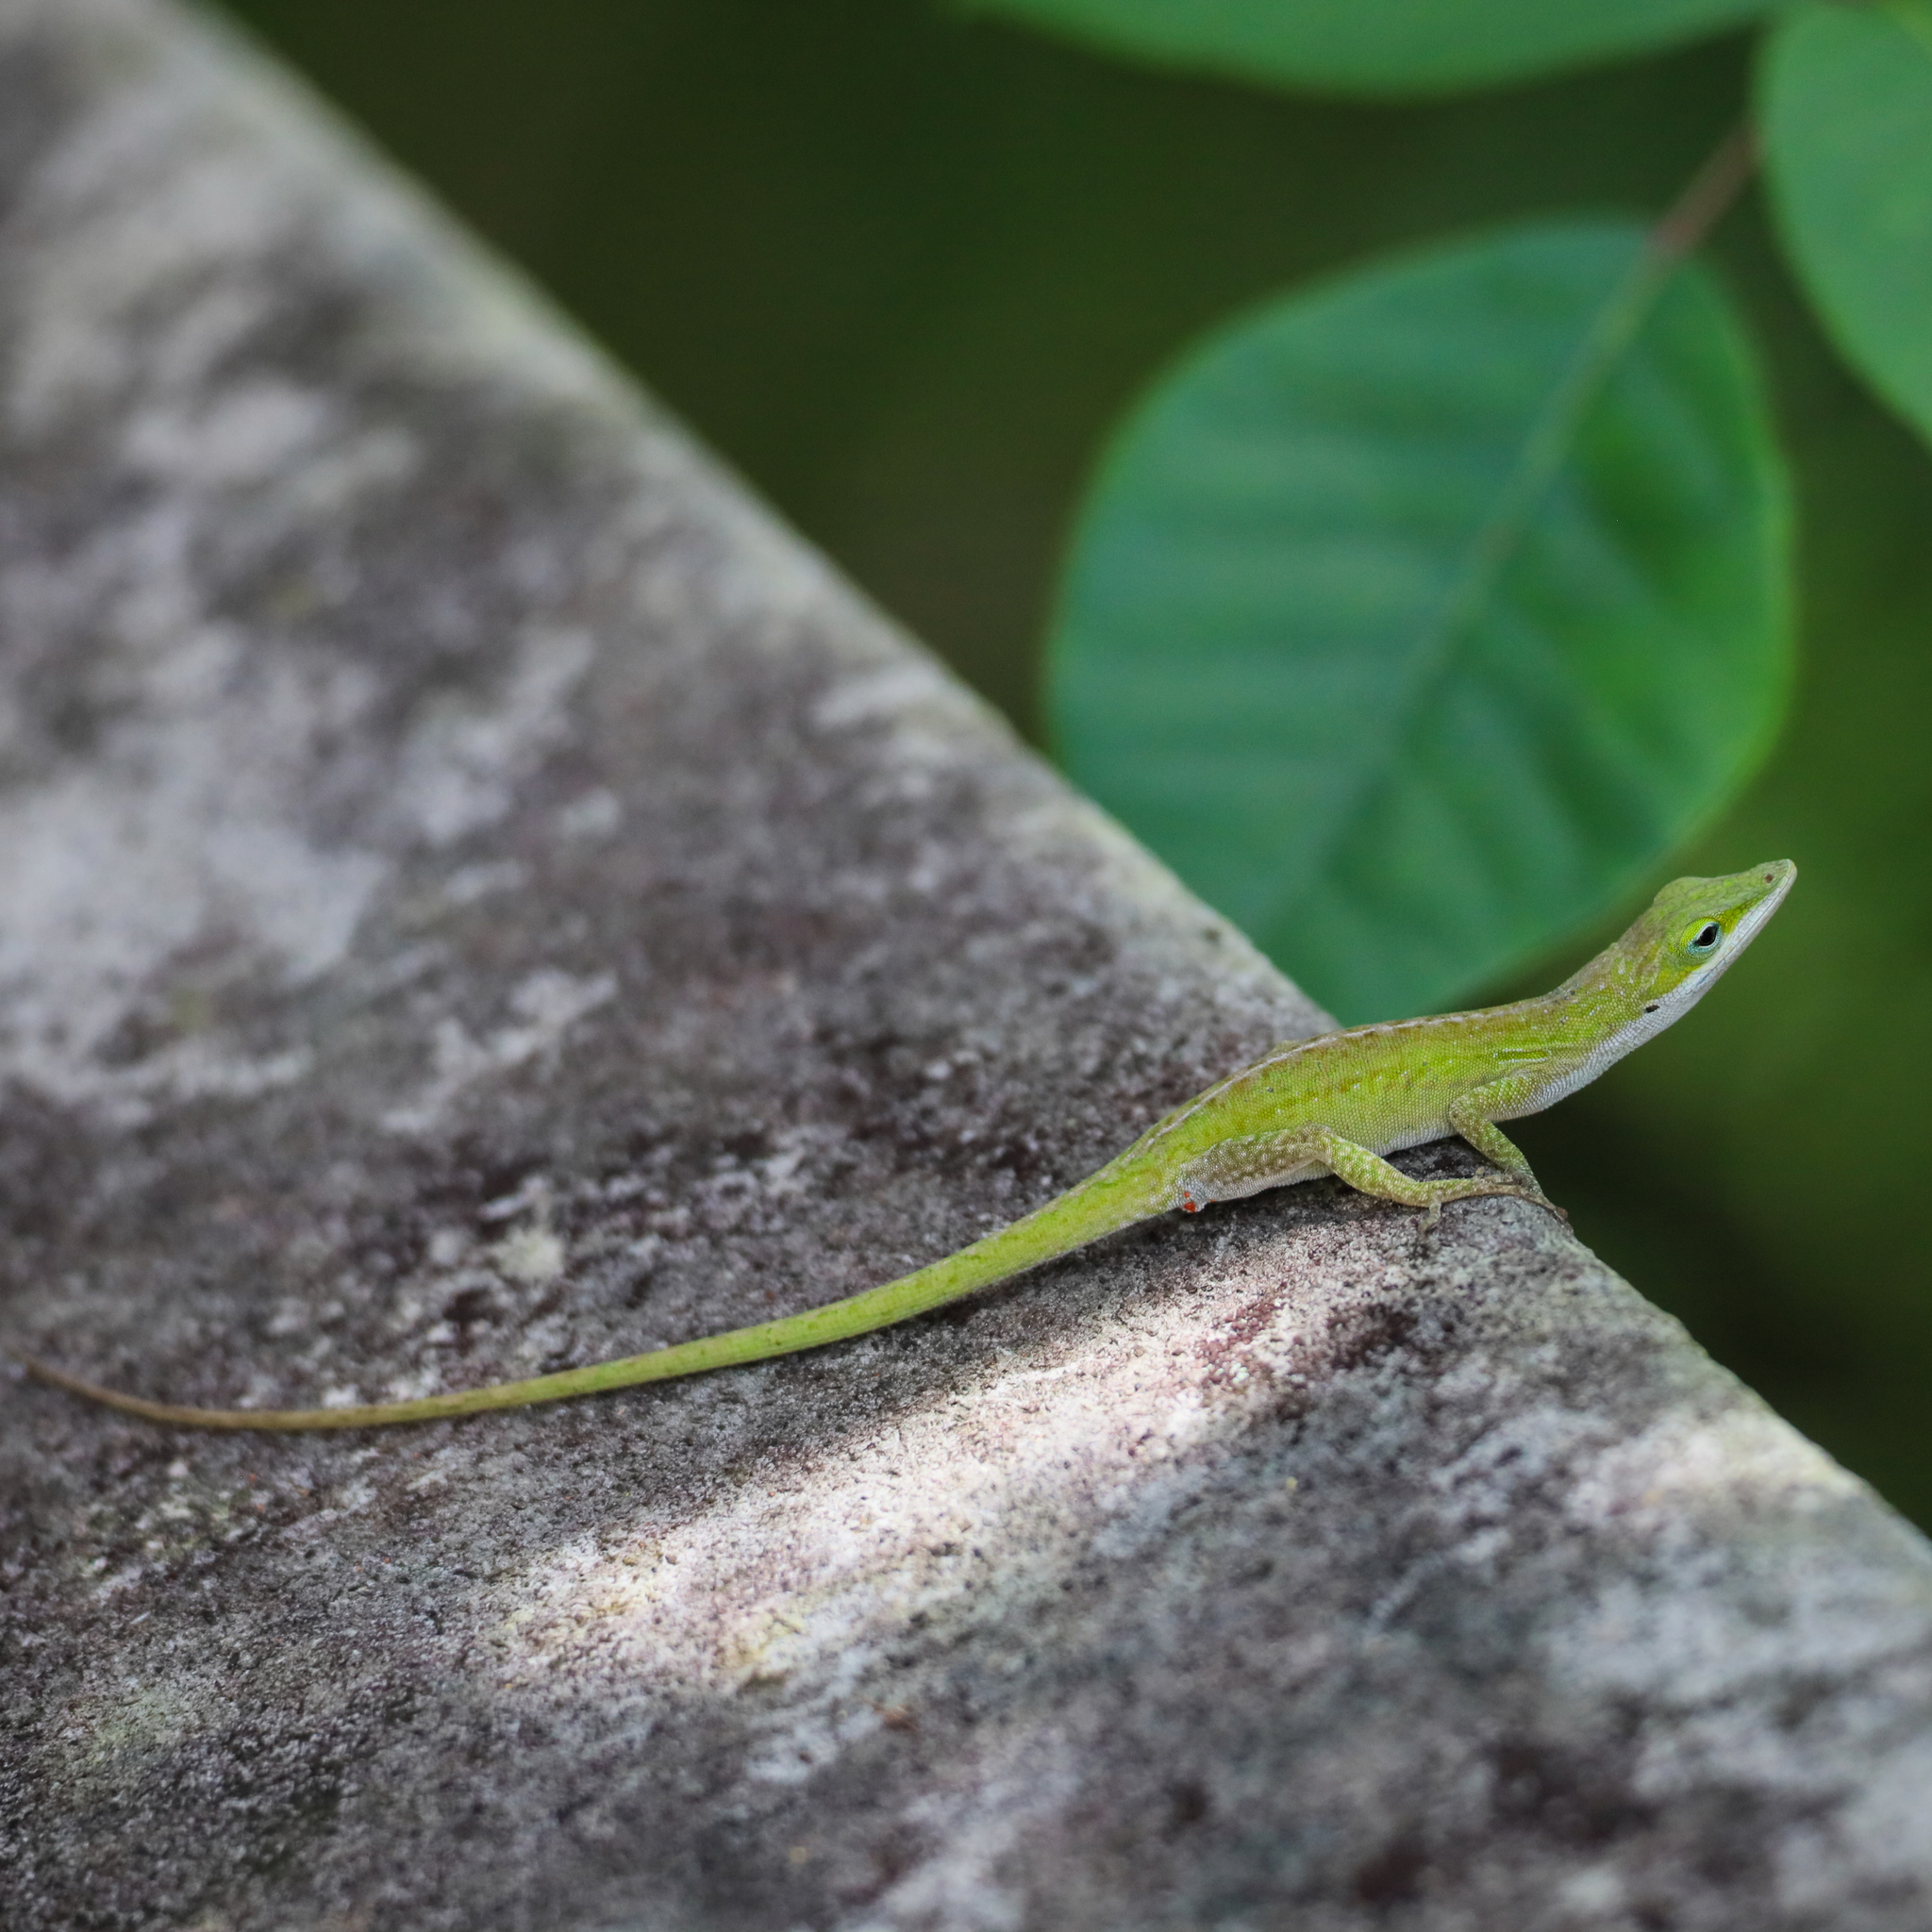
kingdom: Animalia
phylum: Chordata
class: Squamata
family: Dactyloidae
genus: Anolis
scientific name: Anolis carolinensis
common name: Green anole
